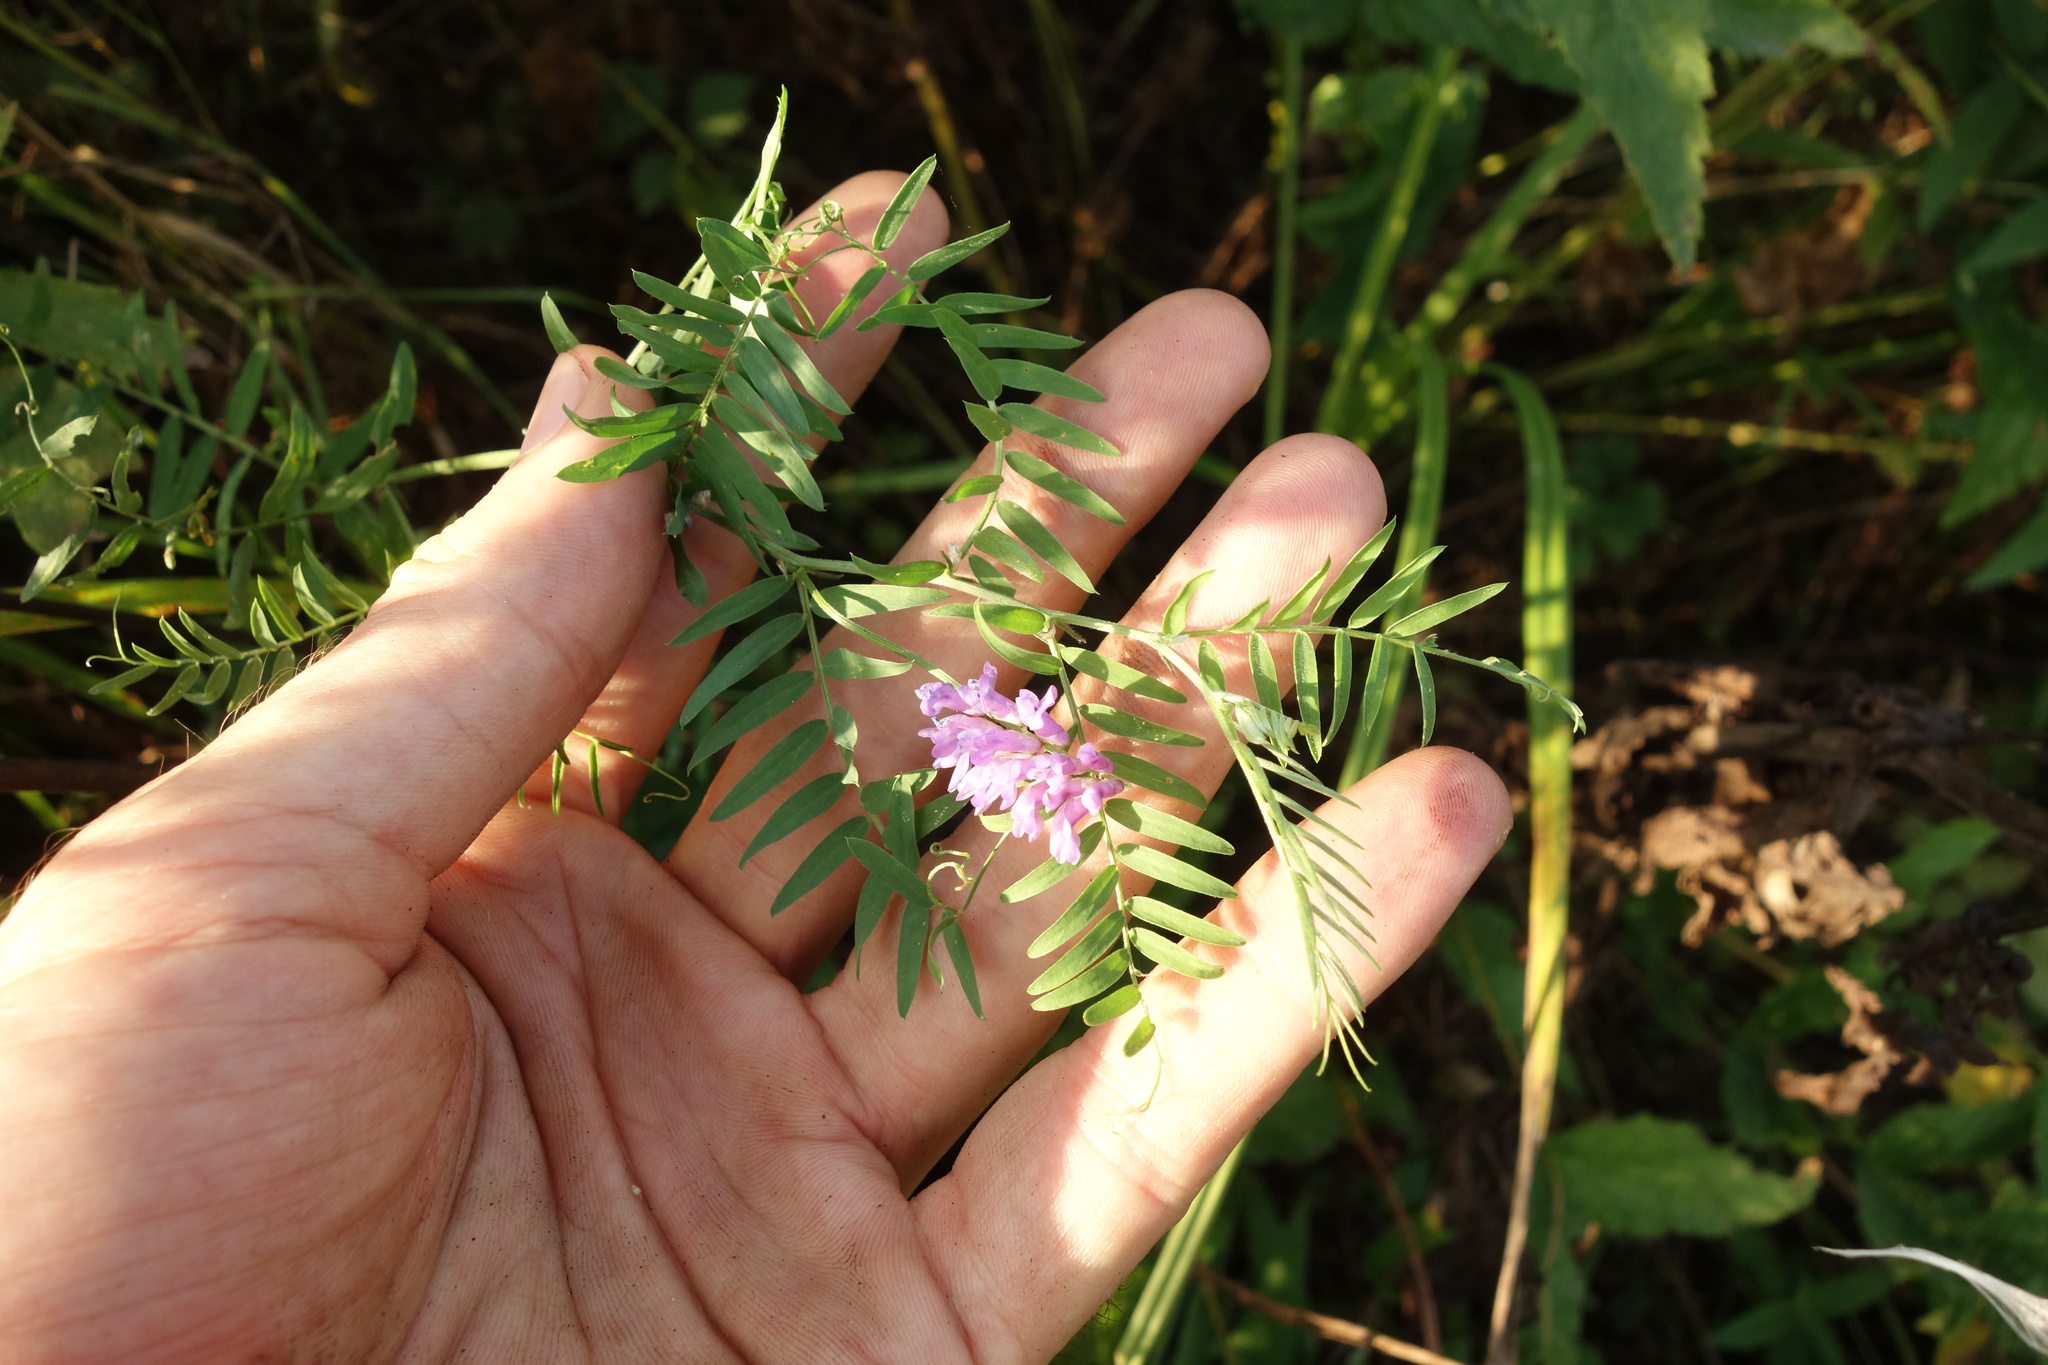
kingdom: Plantae
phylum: Tracheophyta
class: Magnoliopsida
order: Fabales
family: Fabaceae
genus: Vicia
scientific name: Vicia cracca
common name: Bird vetch
